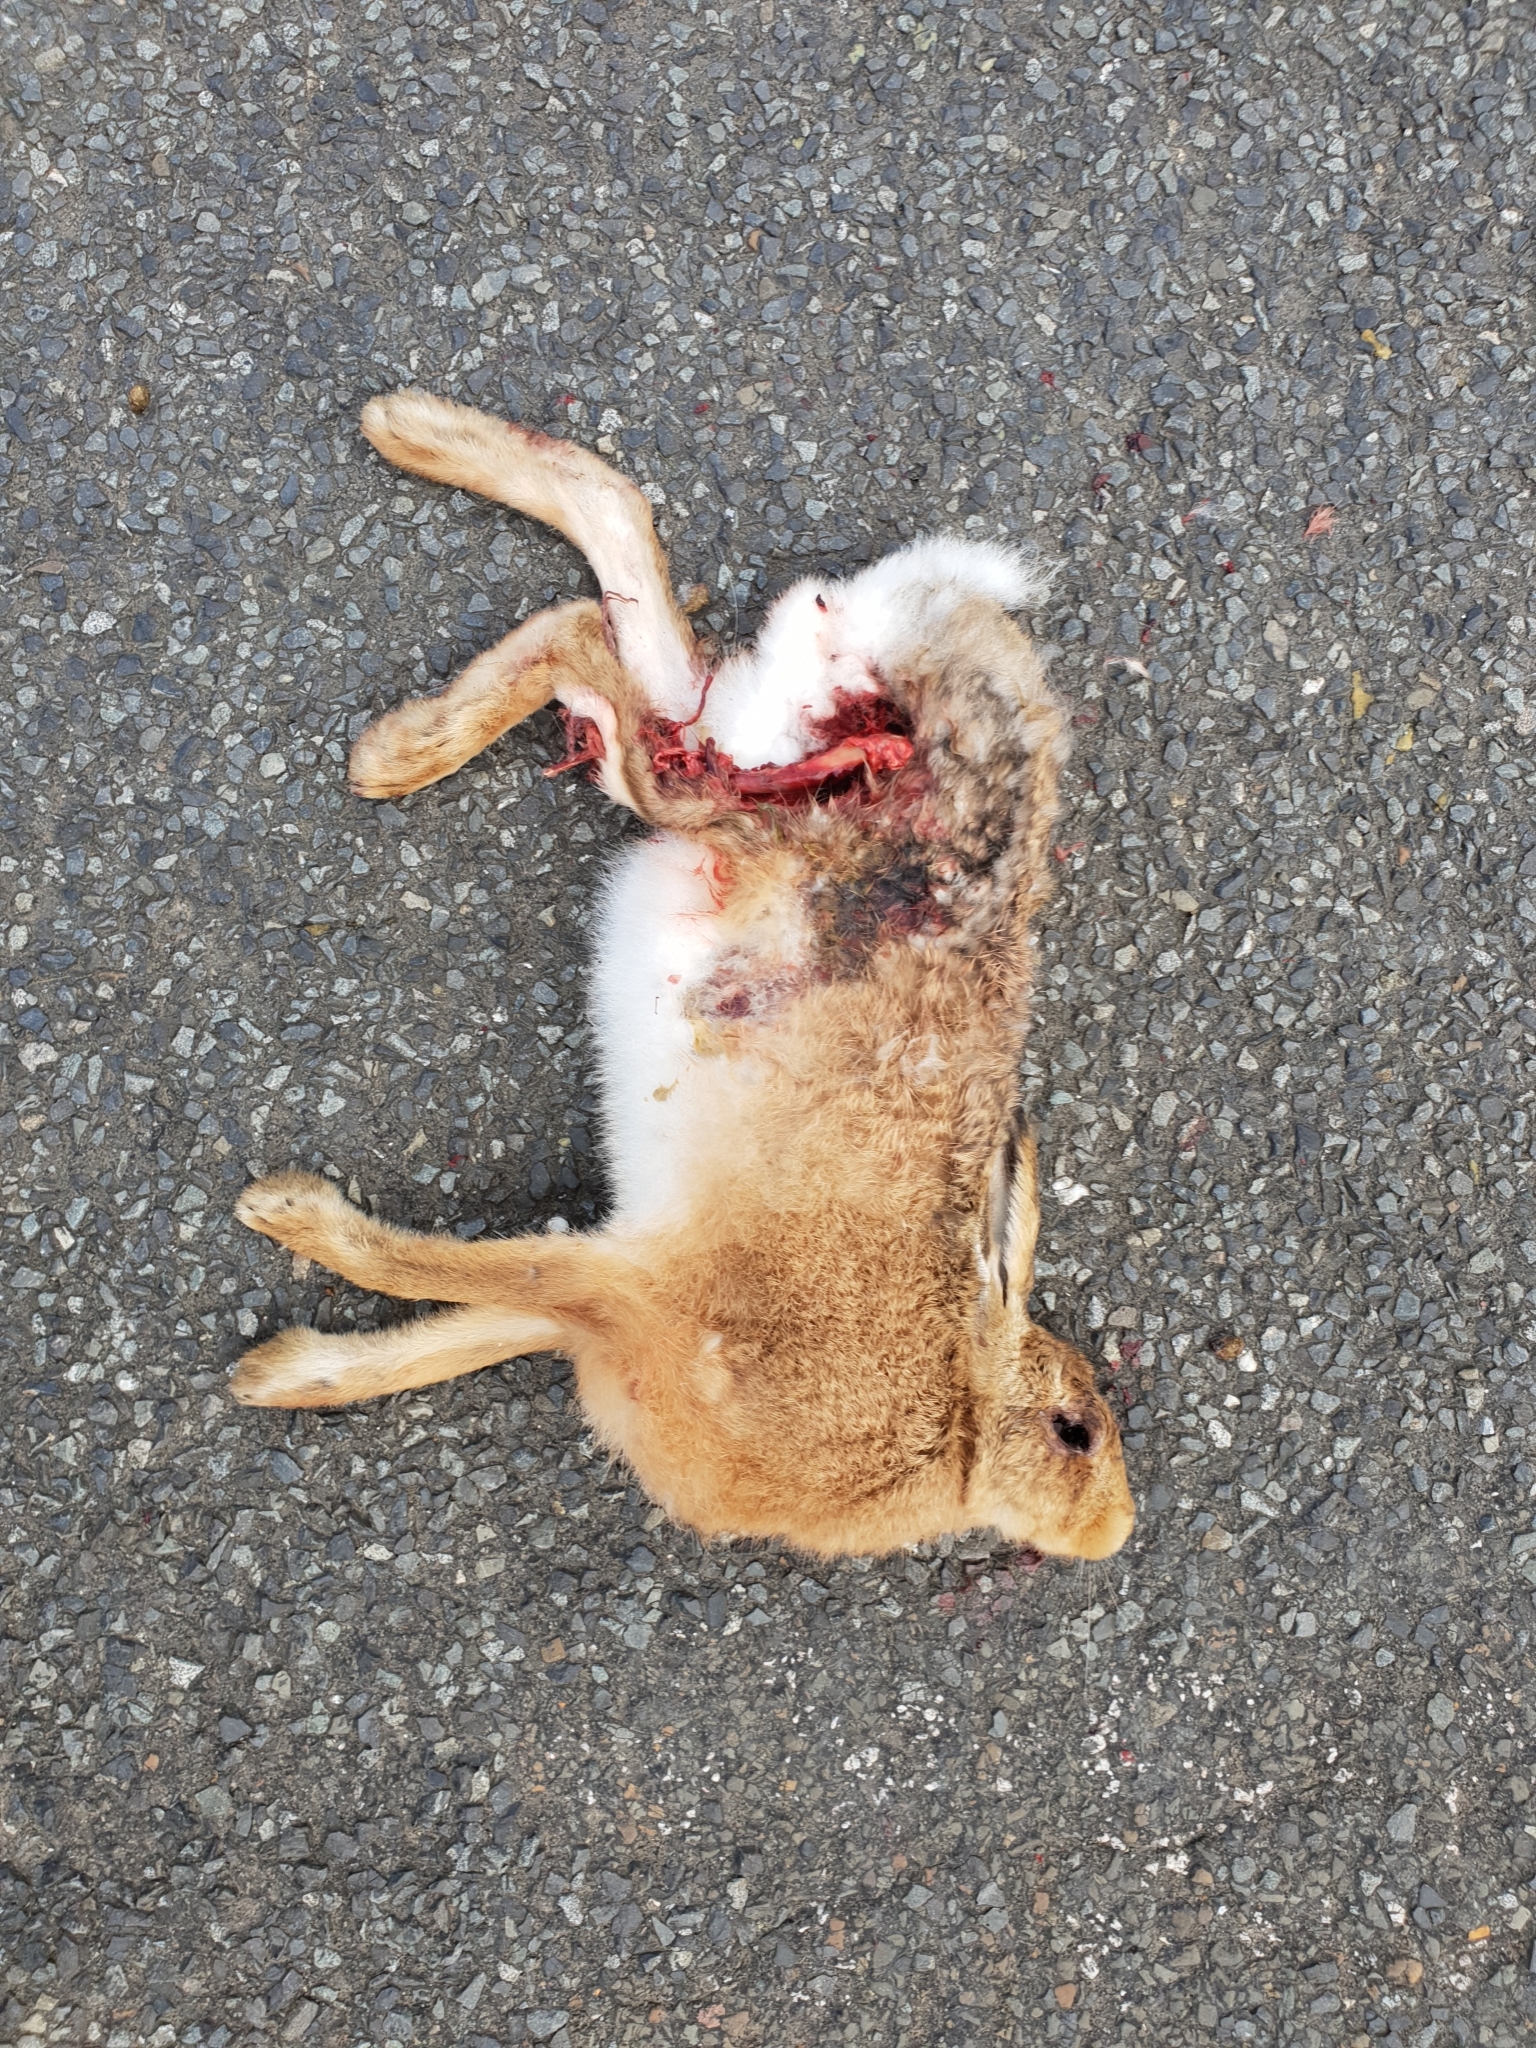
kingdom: Animalia
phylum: Chordata
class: Mammalia
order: Lagomorpha
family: Leporidae
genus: Lepus
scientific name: Lepus europaeus
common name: European hare
